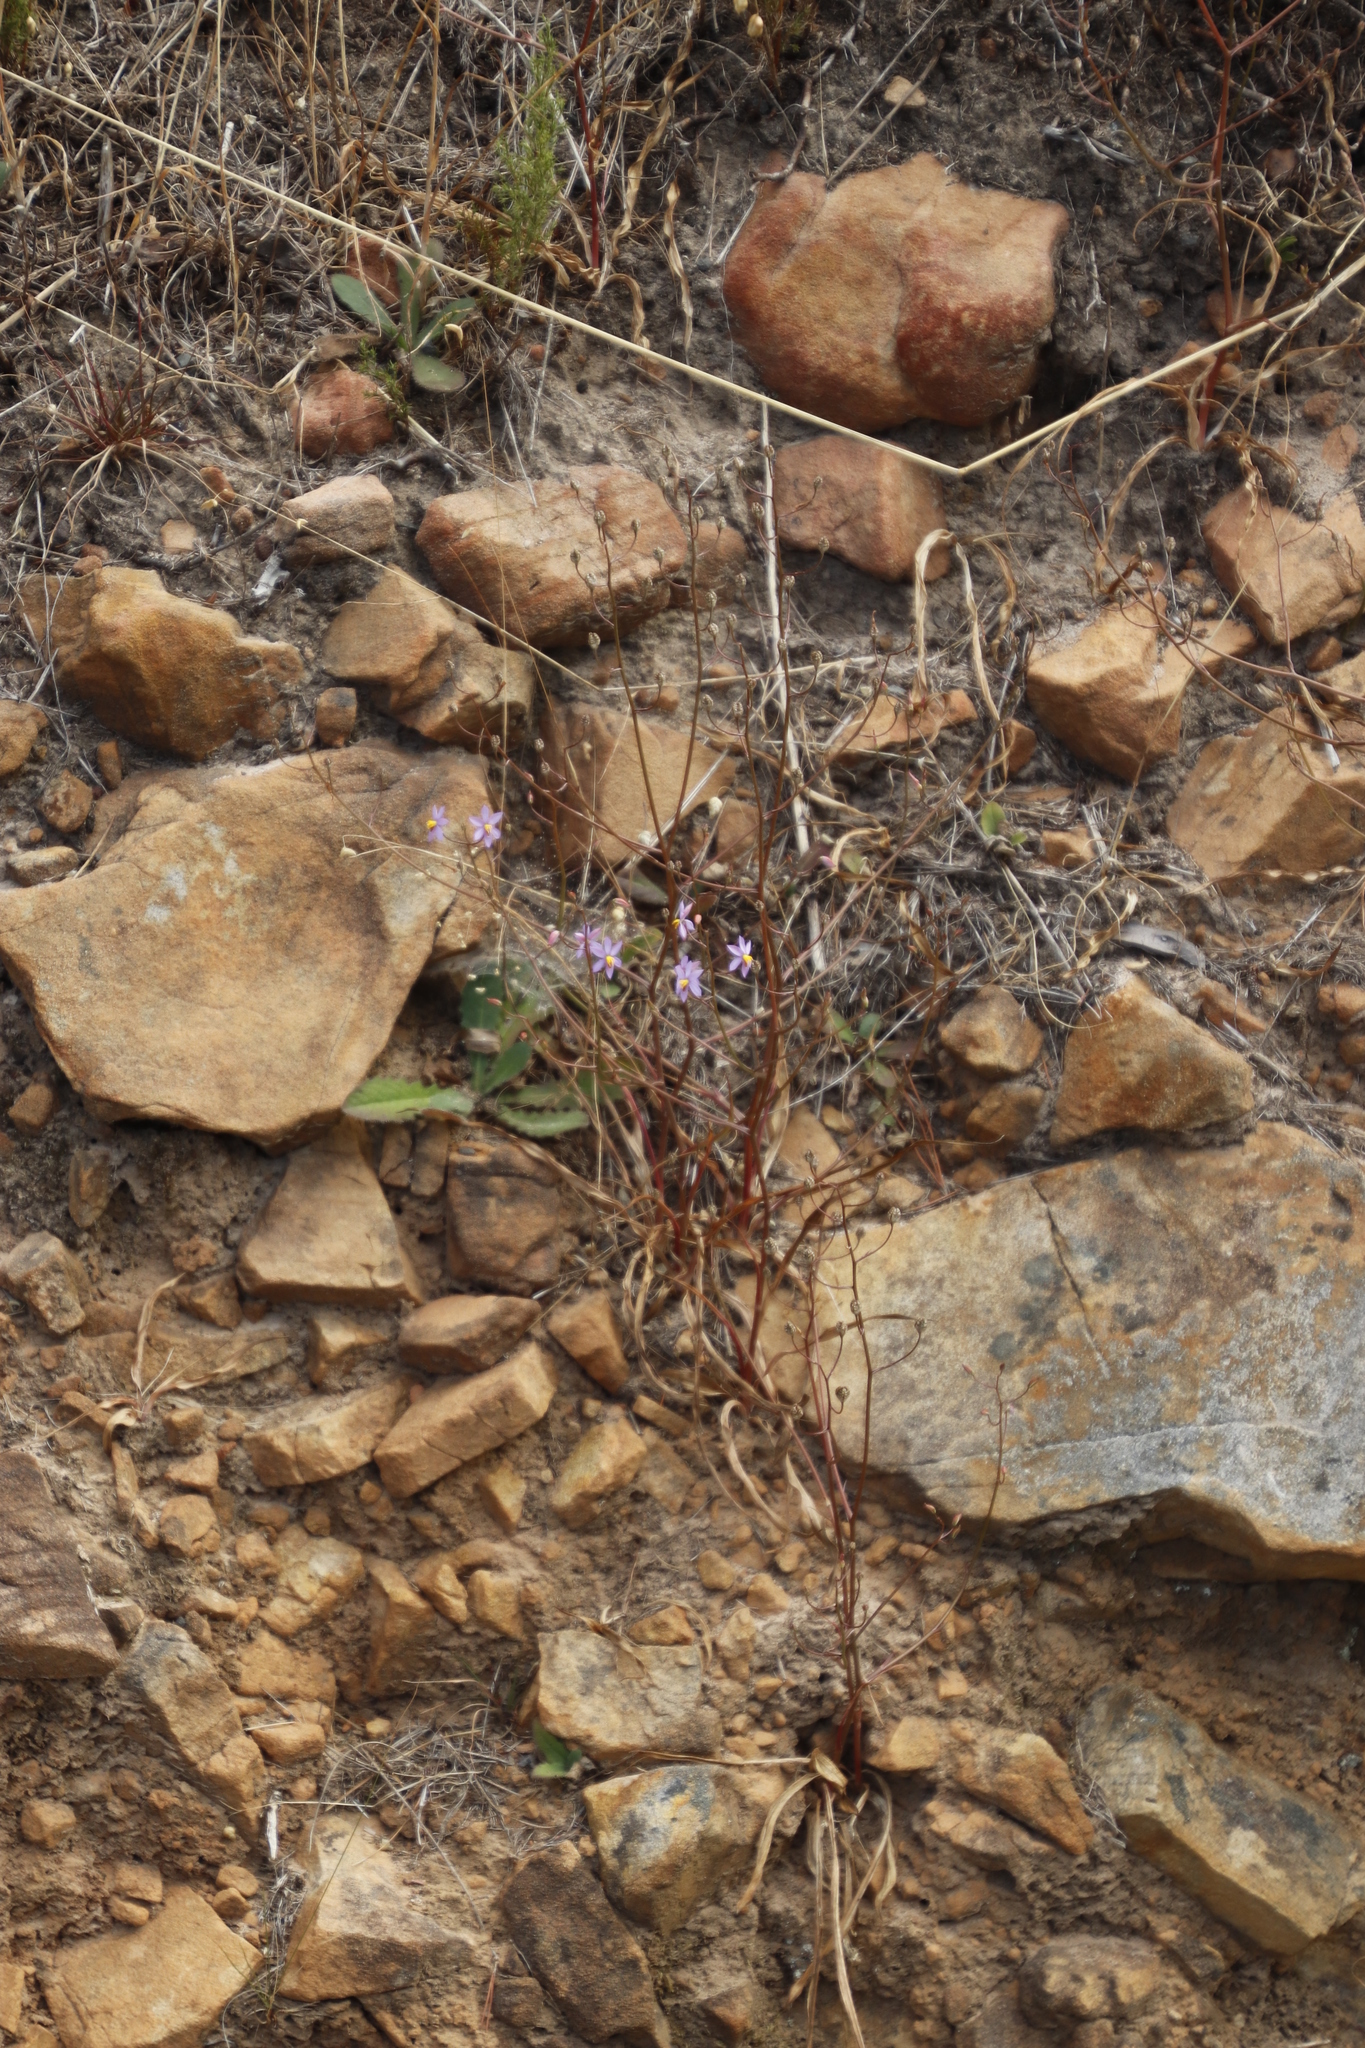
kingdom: Plantae
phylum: Tracheophyta
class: Liliopsida
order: Asparagales
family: Tecophilaeaceae
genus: Cyanella
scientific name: Cyanella hyacinthoides
